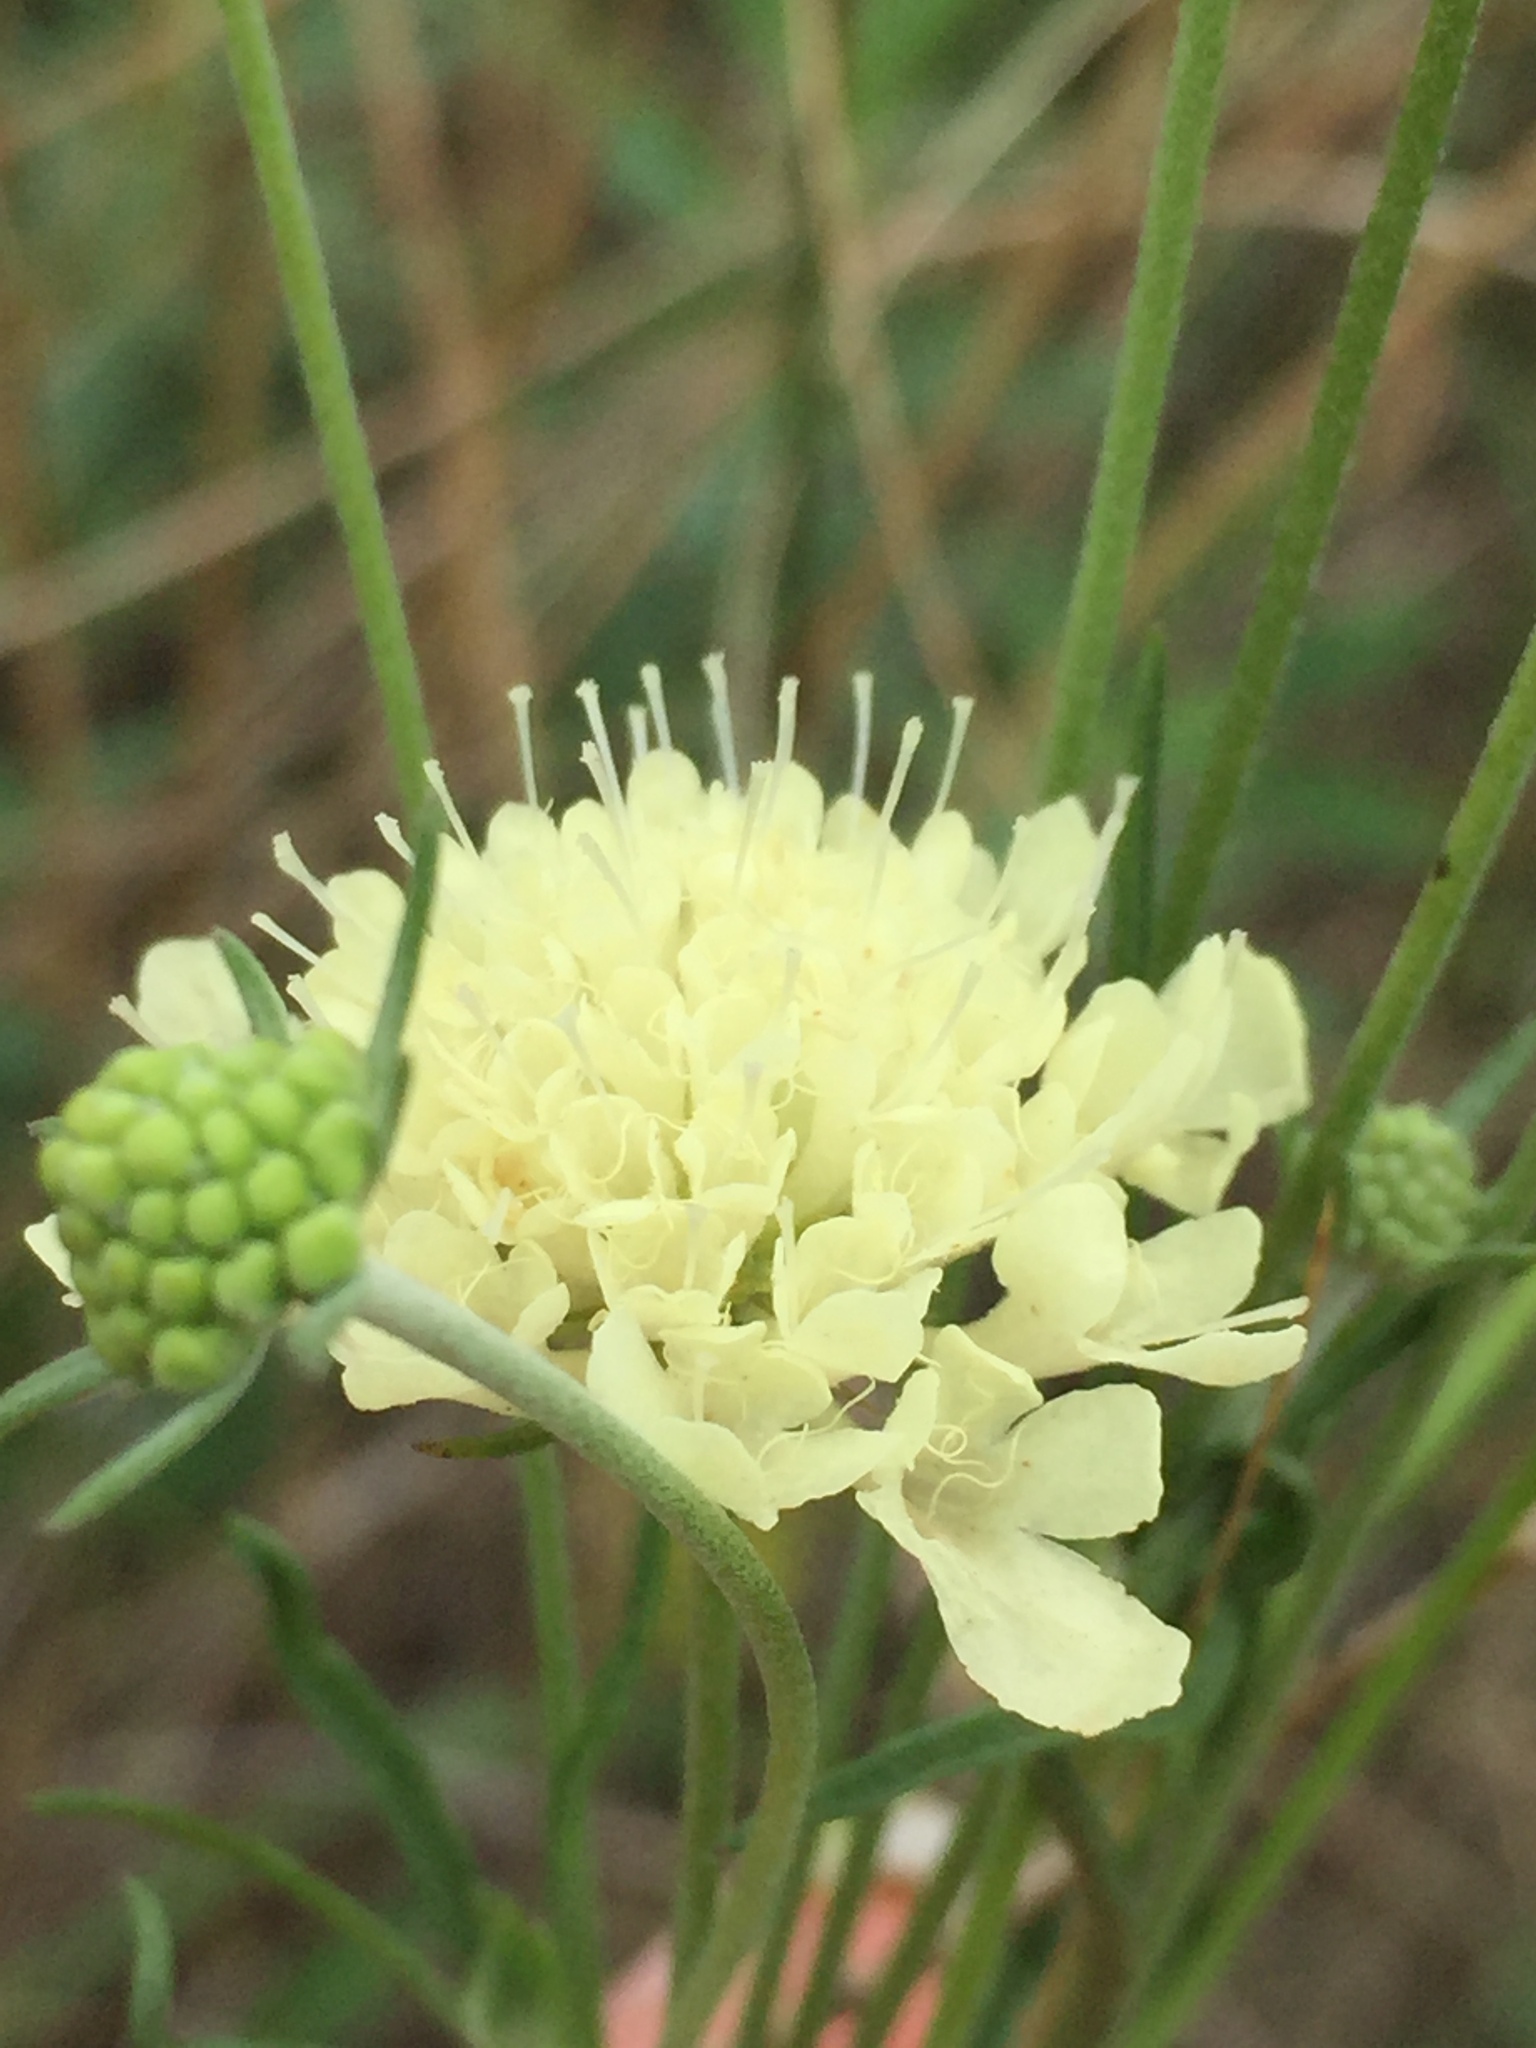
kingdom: Plantae
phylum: Tracheophyta
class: Magnoliopsida
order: Dipsacales
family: Caprifoliaceae
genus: Scabiosa
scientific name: Scabiosa ochroleuca
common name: Cream pincushions
